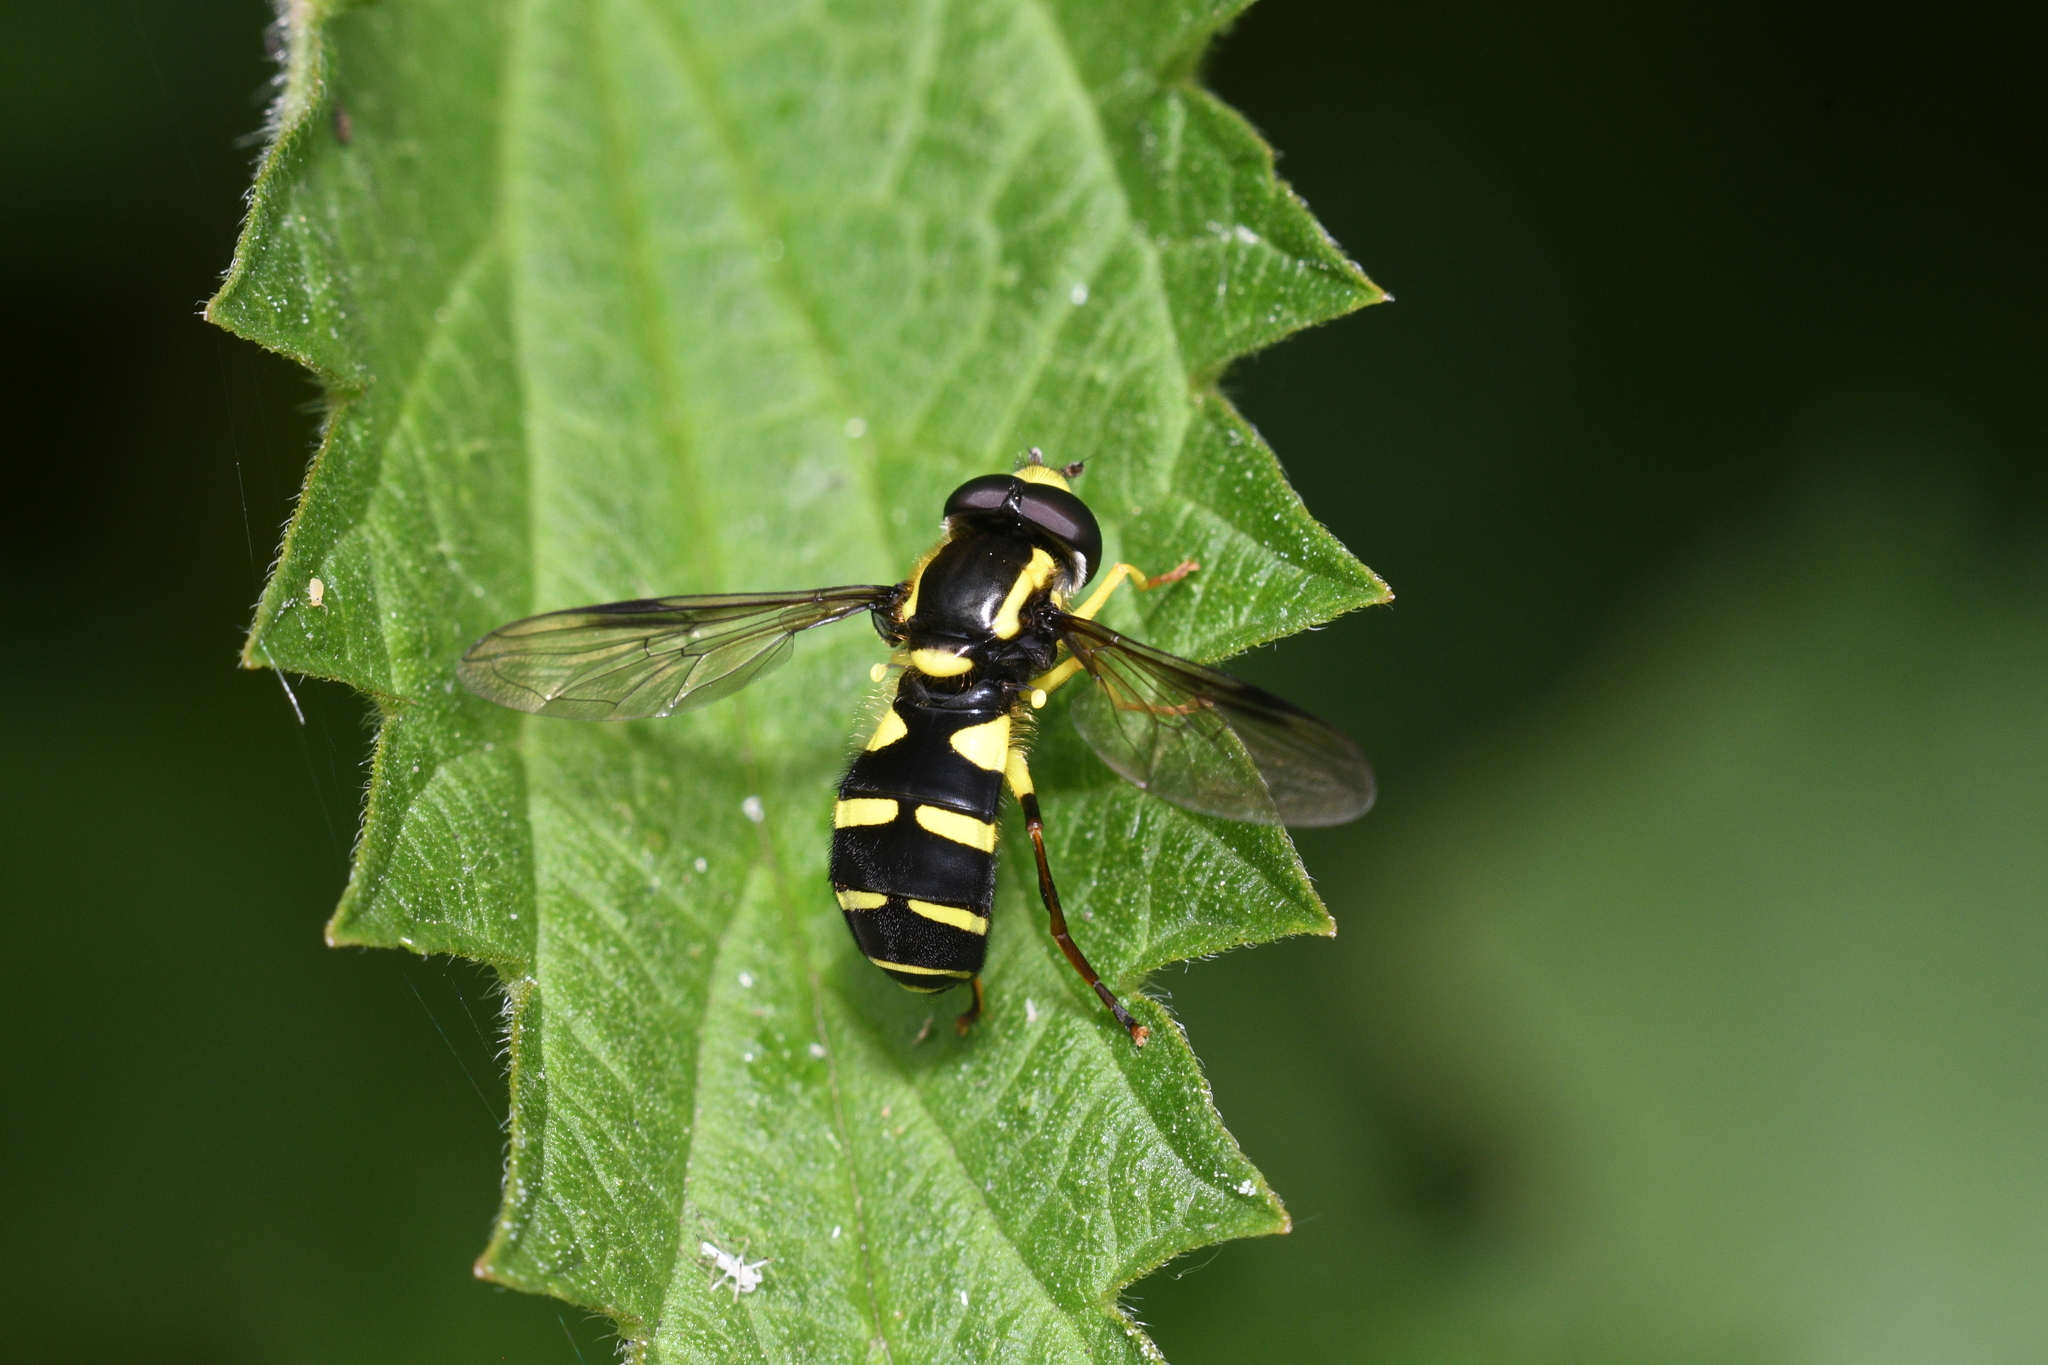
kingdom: Animalia
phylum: Arthropoda
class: Insecta
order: Diptera
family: Syrphidae
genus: Philhelius
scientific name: Philhelius pedissequum
